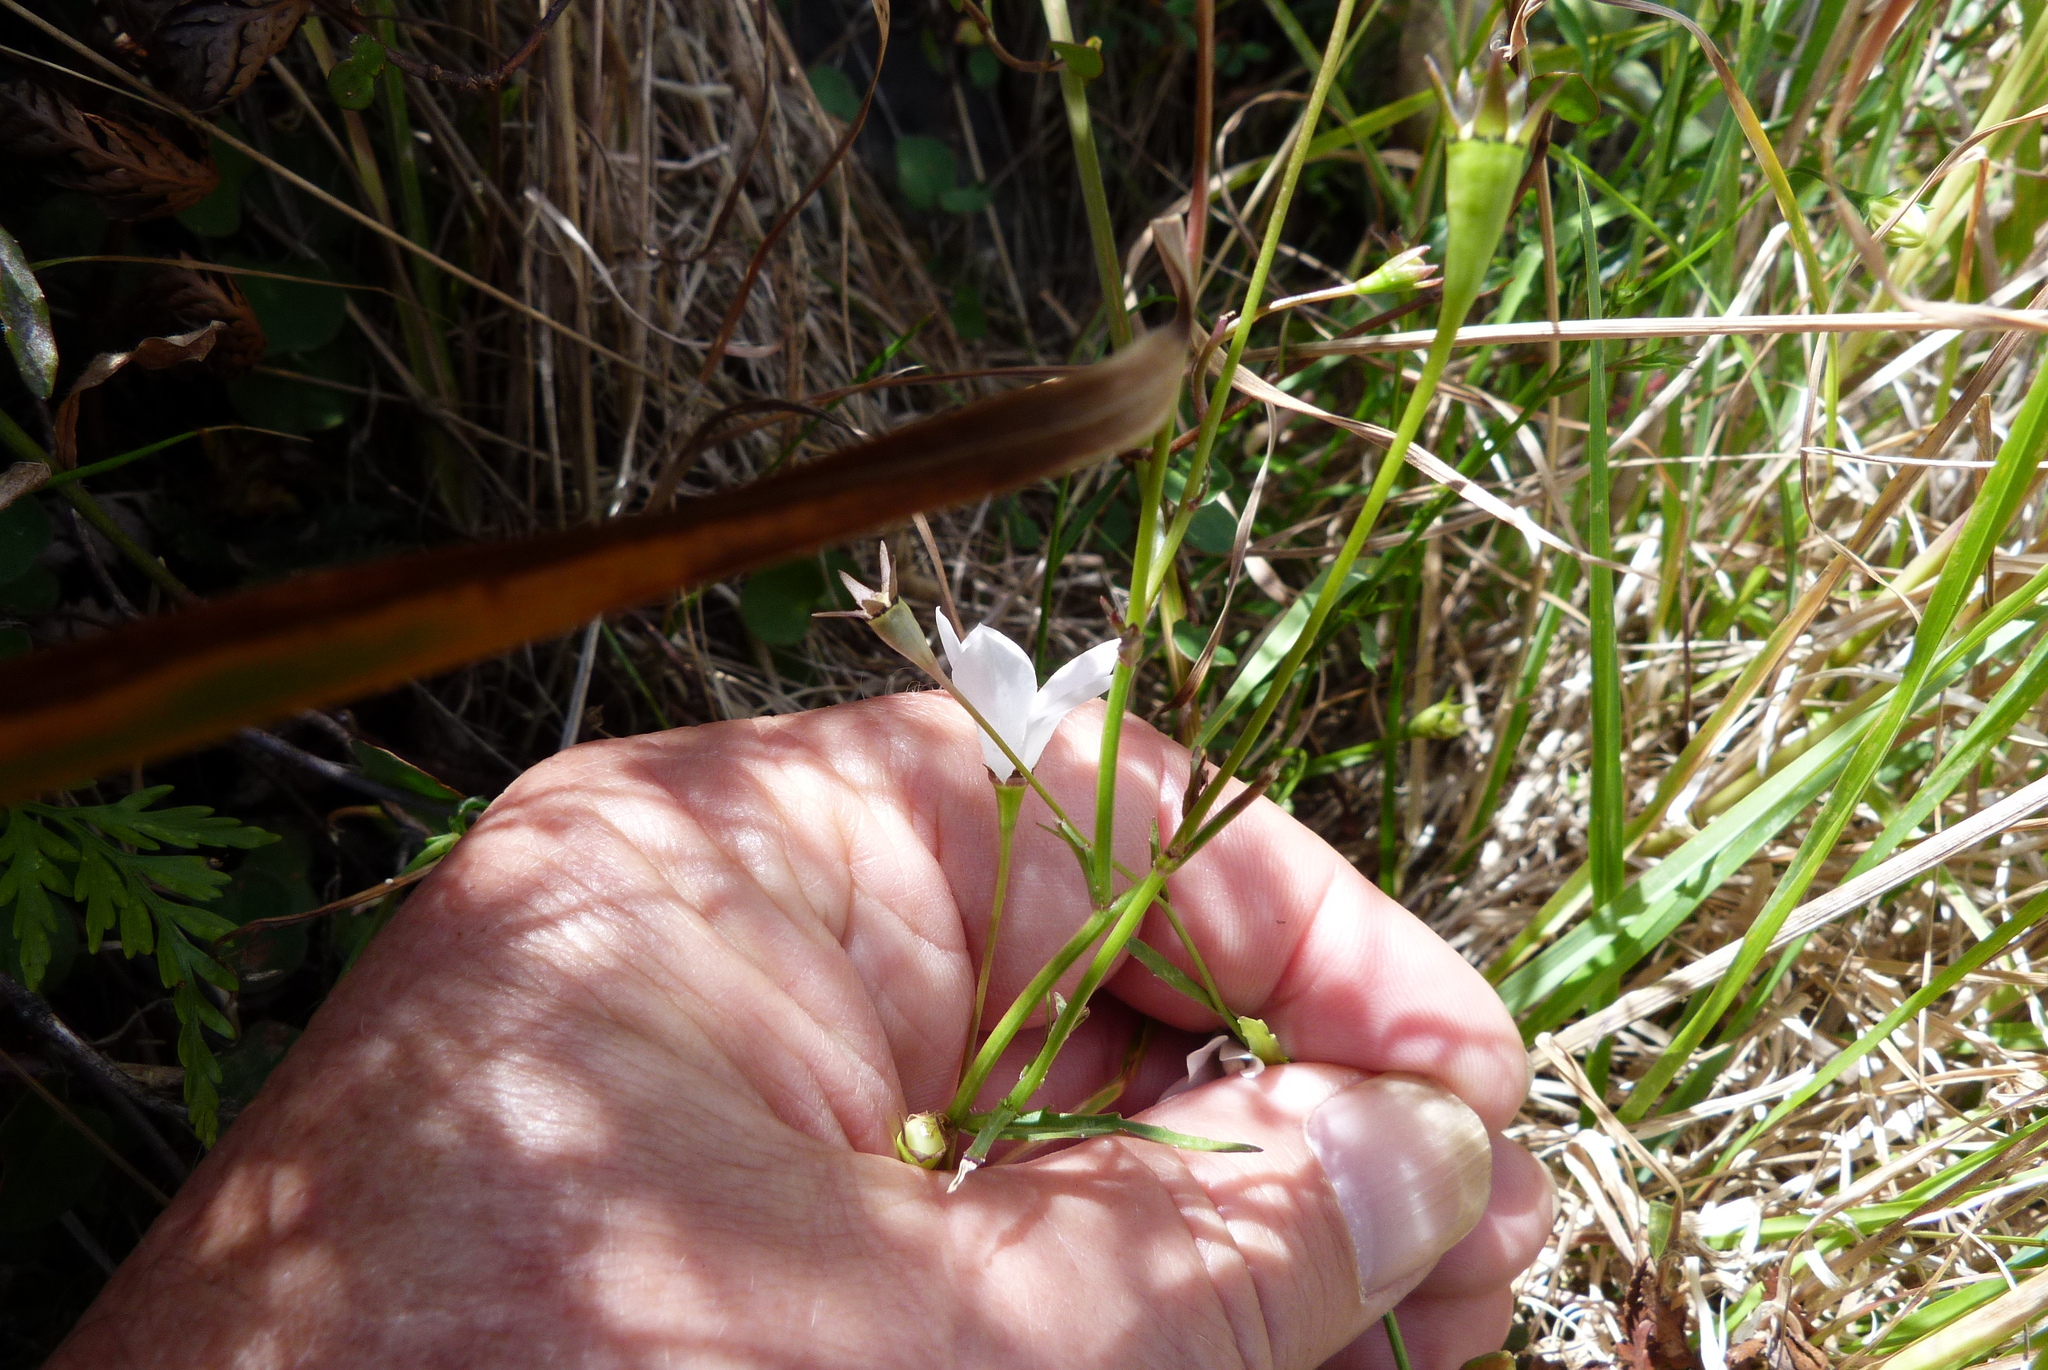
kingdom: Plantae
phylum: Tracheophyta
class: Magnoliopsida
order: Asterales
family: Campanulaceae
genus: Wahlenbergia
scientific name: Wahlenbergia ramosa
